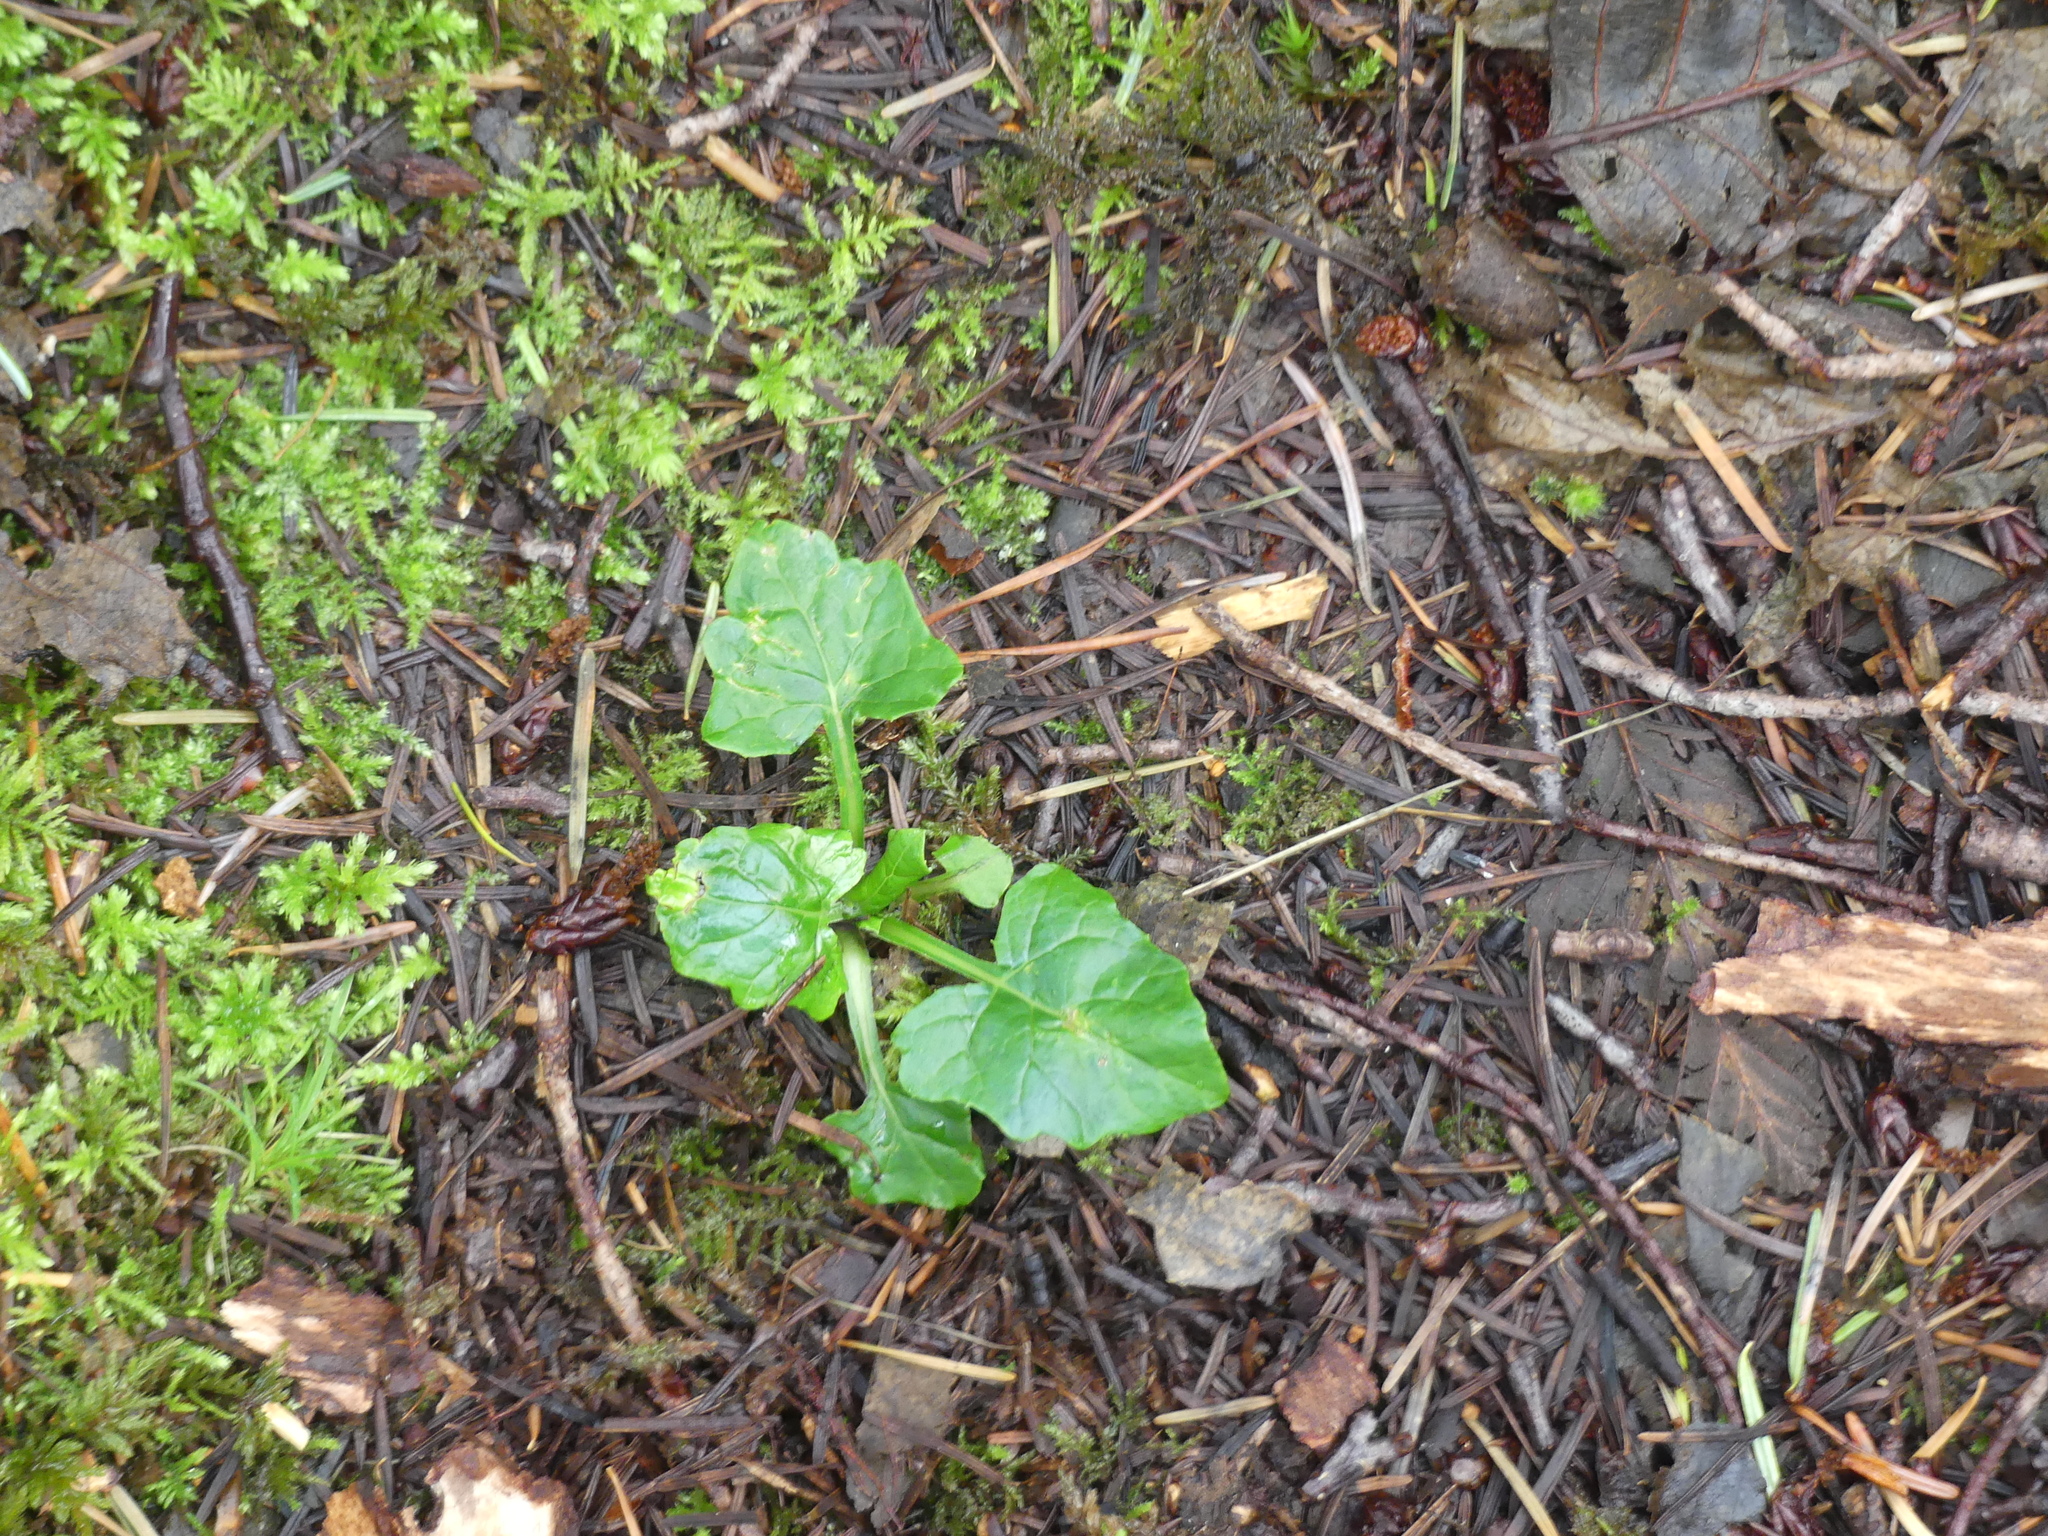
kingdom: Plantae
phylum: Tracheophyta
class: Magnoliopsida
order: Asterales
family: Asteraceae
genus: Adenocaulon
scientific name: Adenocaulon bicolor
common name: Trailplant
